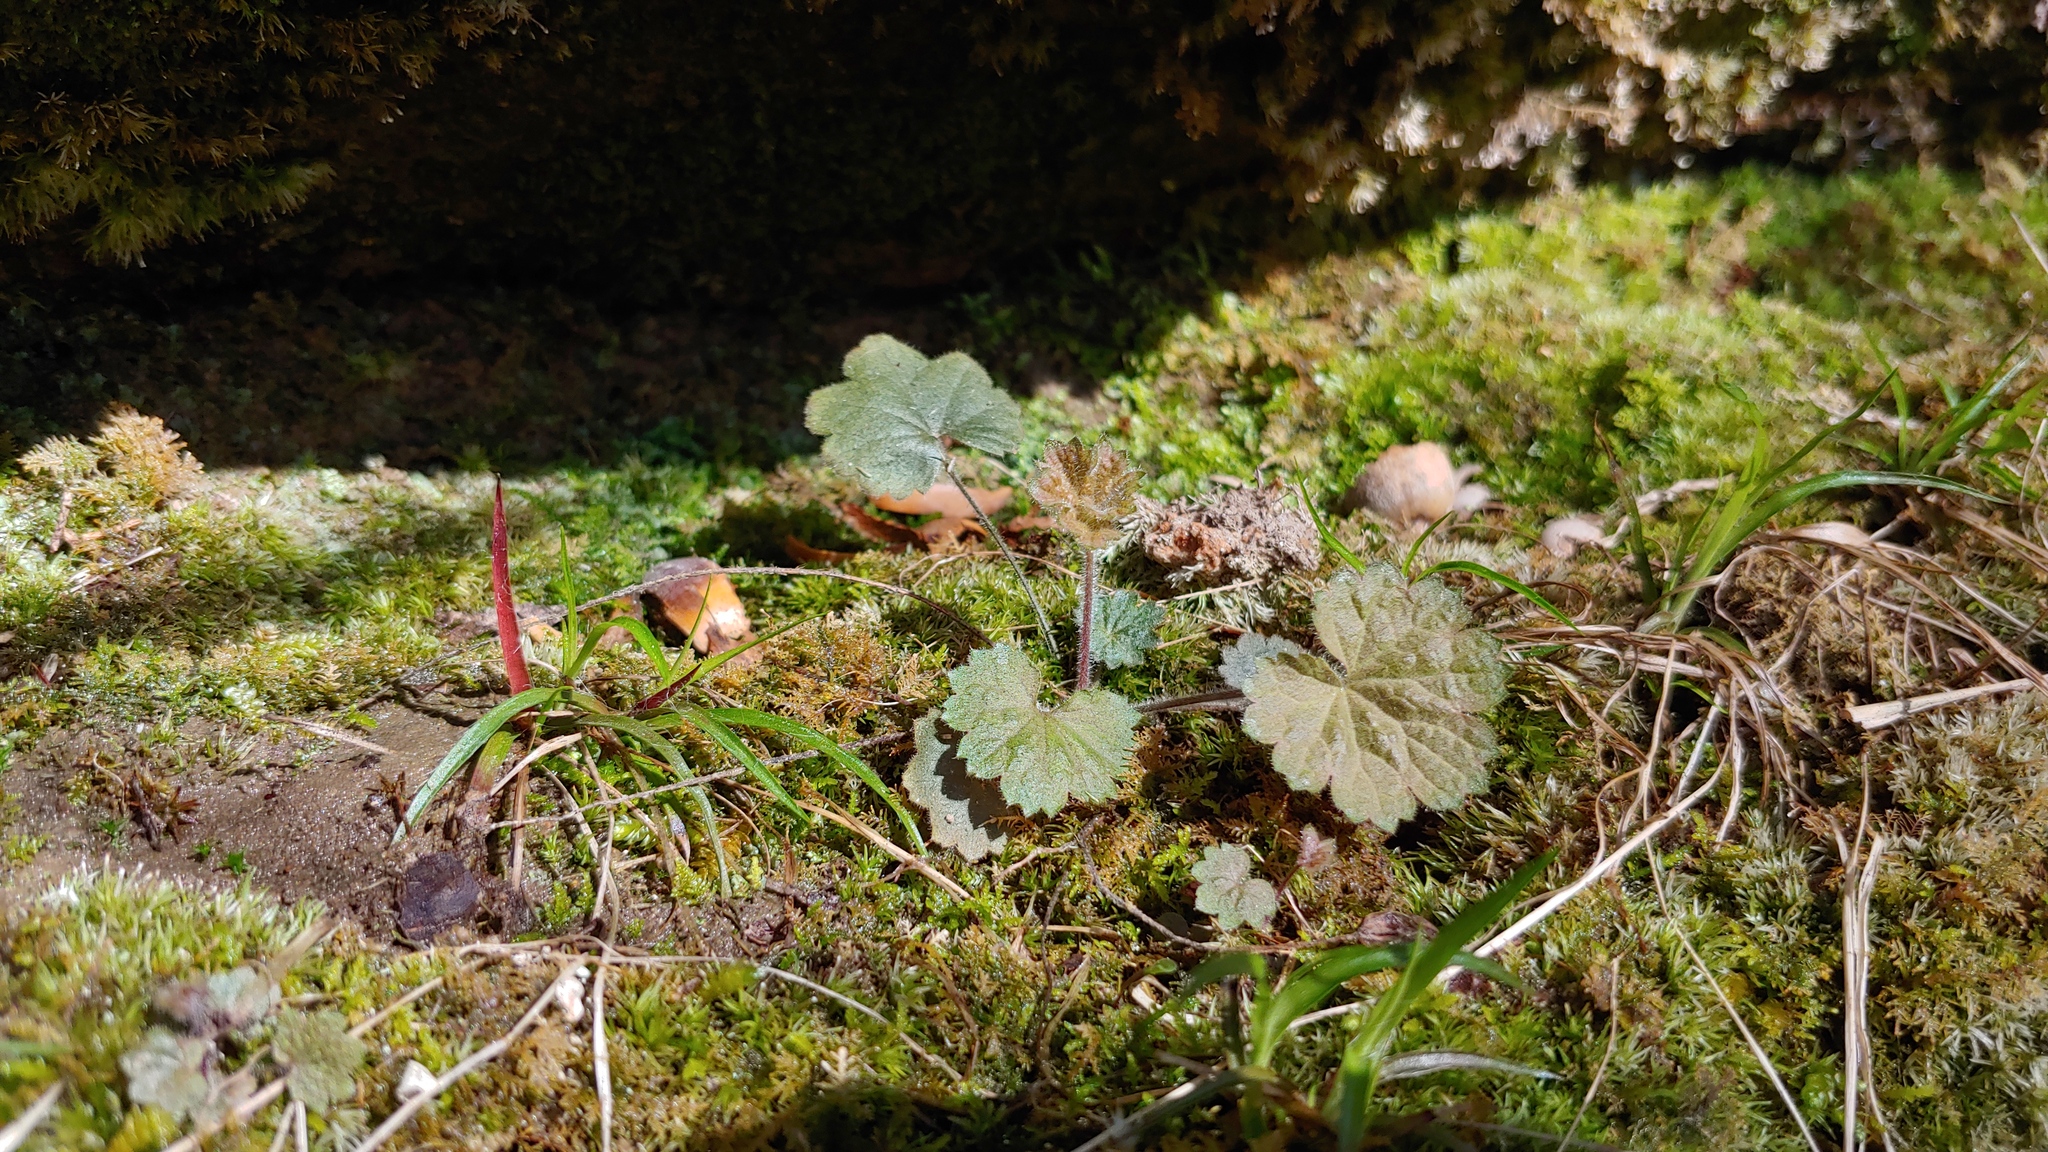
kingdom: Plantae
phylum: Tracheophyta
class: Magnoliopsida
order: Saxifragales
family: Saxifragaceae
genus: Heuchera
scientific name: Heuchera missouriensis
